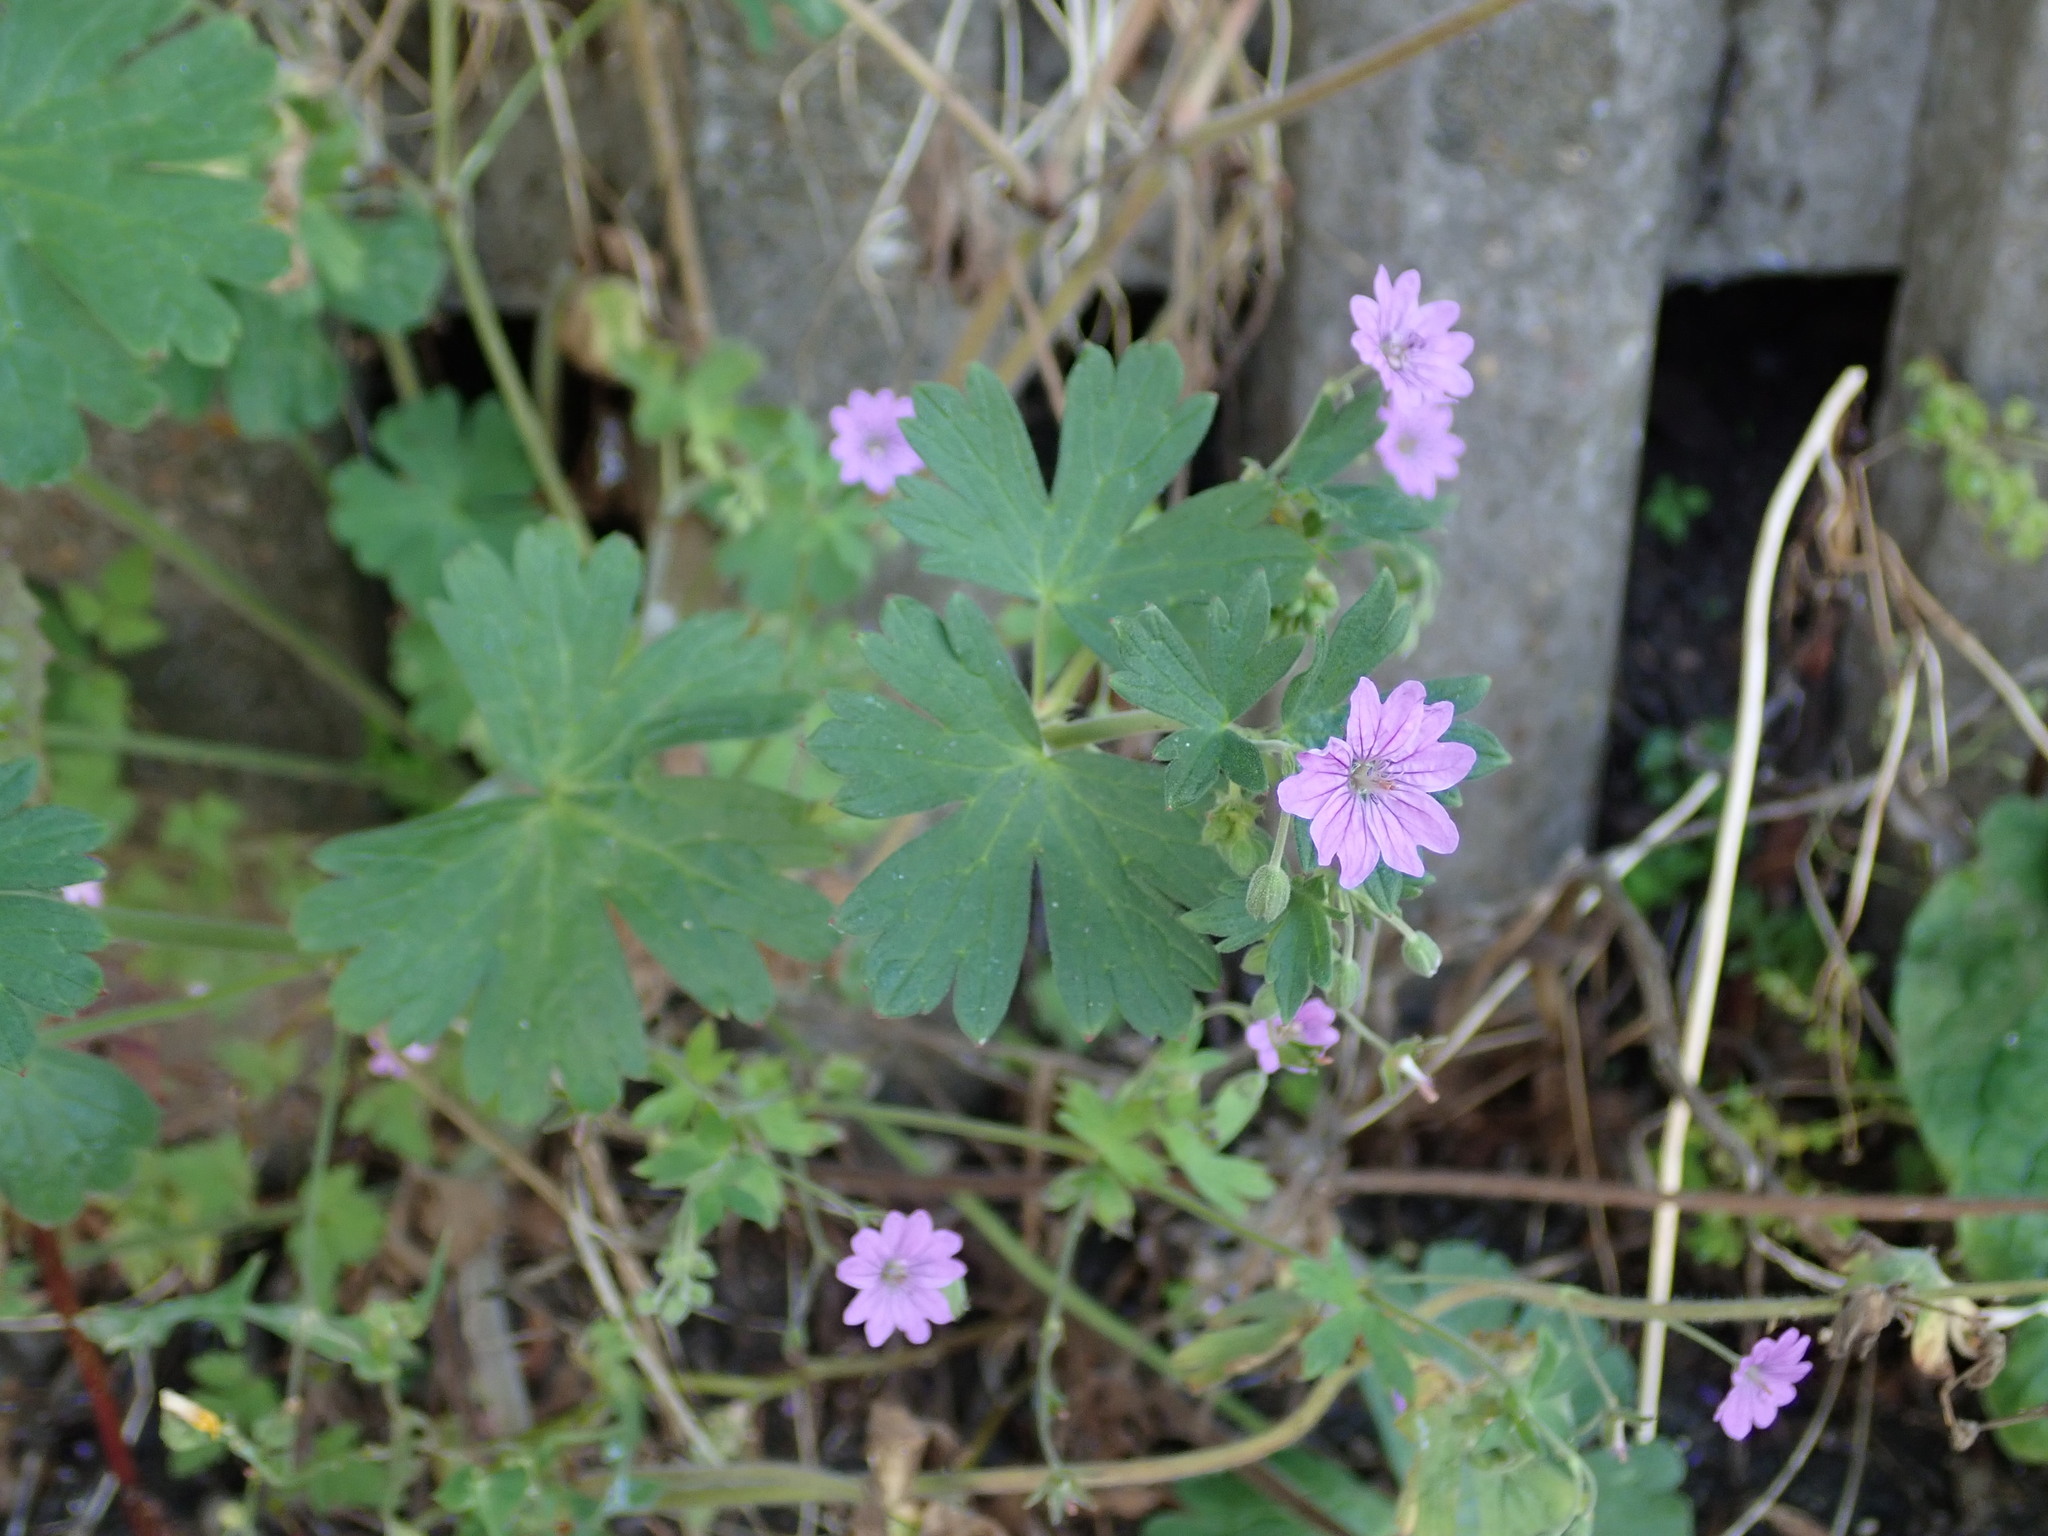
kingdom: Plantae
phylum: Tracheophyta
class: Magnoliopsida
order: Geraniales
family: Geraniaceae
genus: Geranium
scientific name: Geranium pyrenaicum
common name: Hedgerow crane's-bill
